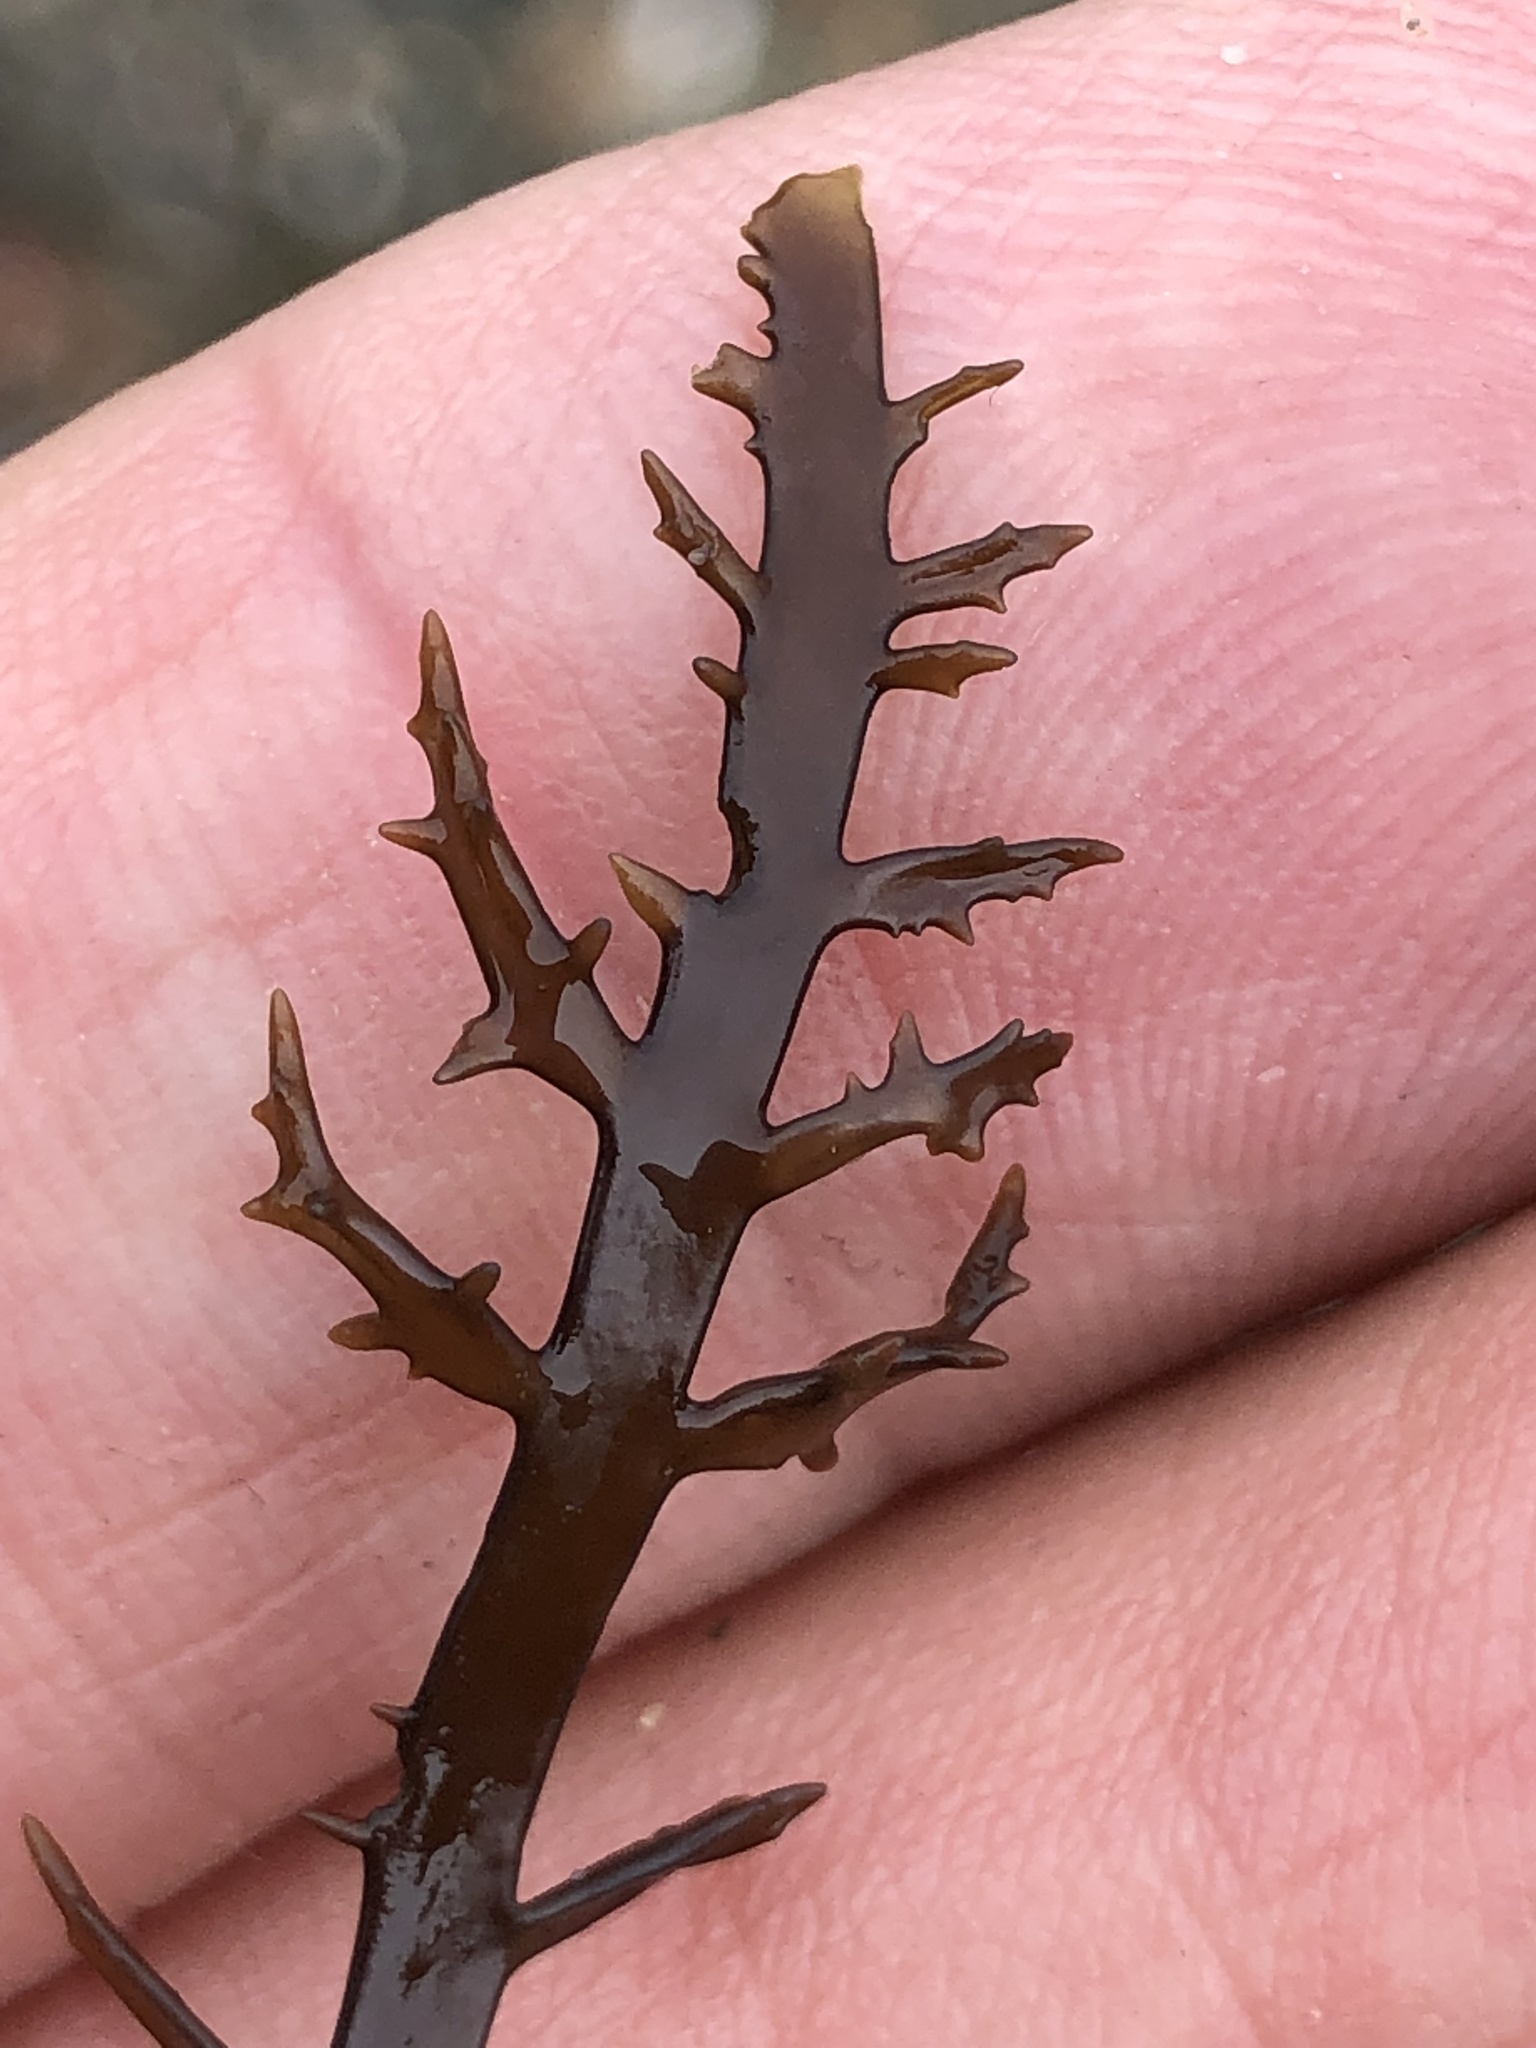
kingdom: Plantae
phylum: Rhodophyta
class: Florideophyceae
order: Gigartinales
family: Gigartinaceae
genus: Chondracanthus
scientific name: Chondracanthus canaliculatus
